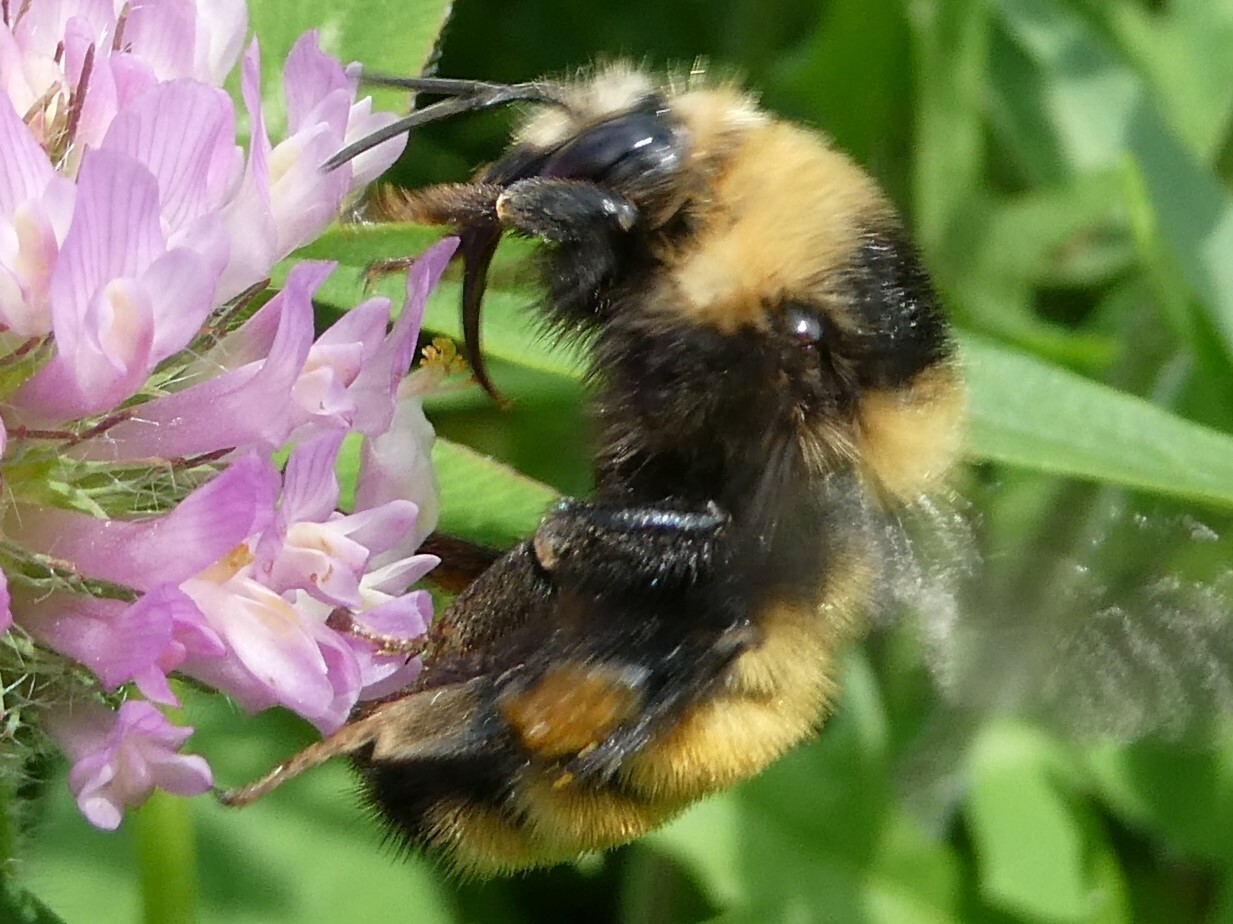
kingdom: Animalia
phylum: Arthropoda
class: Insecta
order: Hymenoptera
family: Apidae
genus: Bombus
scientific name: Bombus borealis
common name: Northern amber bumble bee
